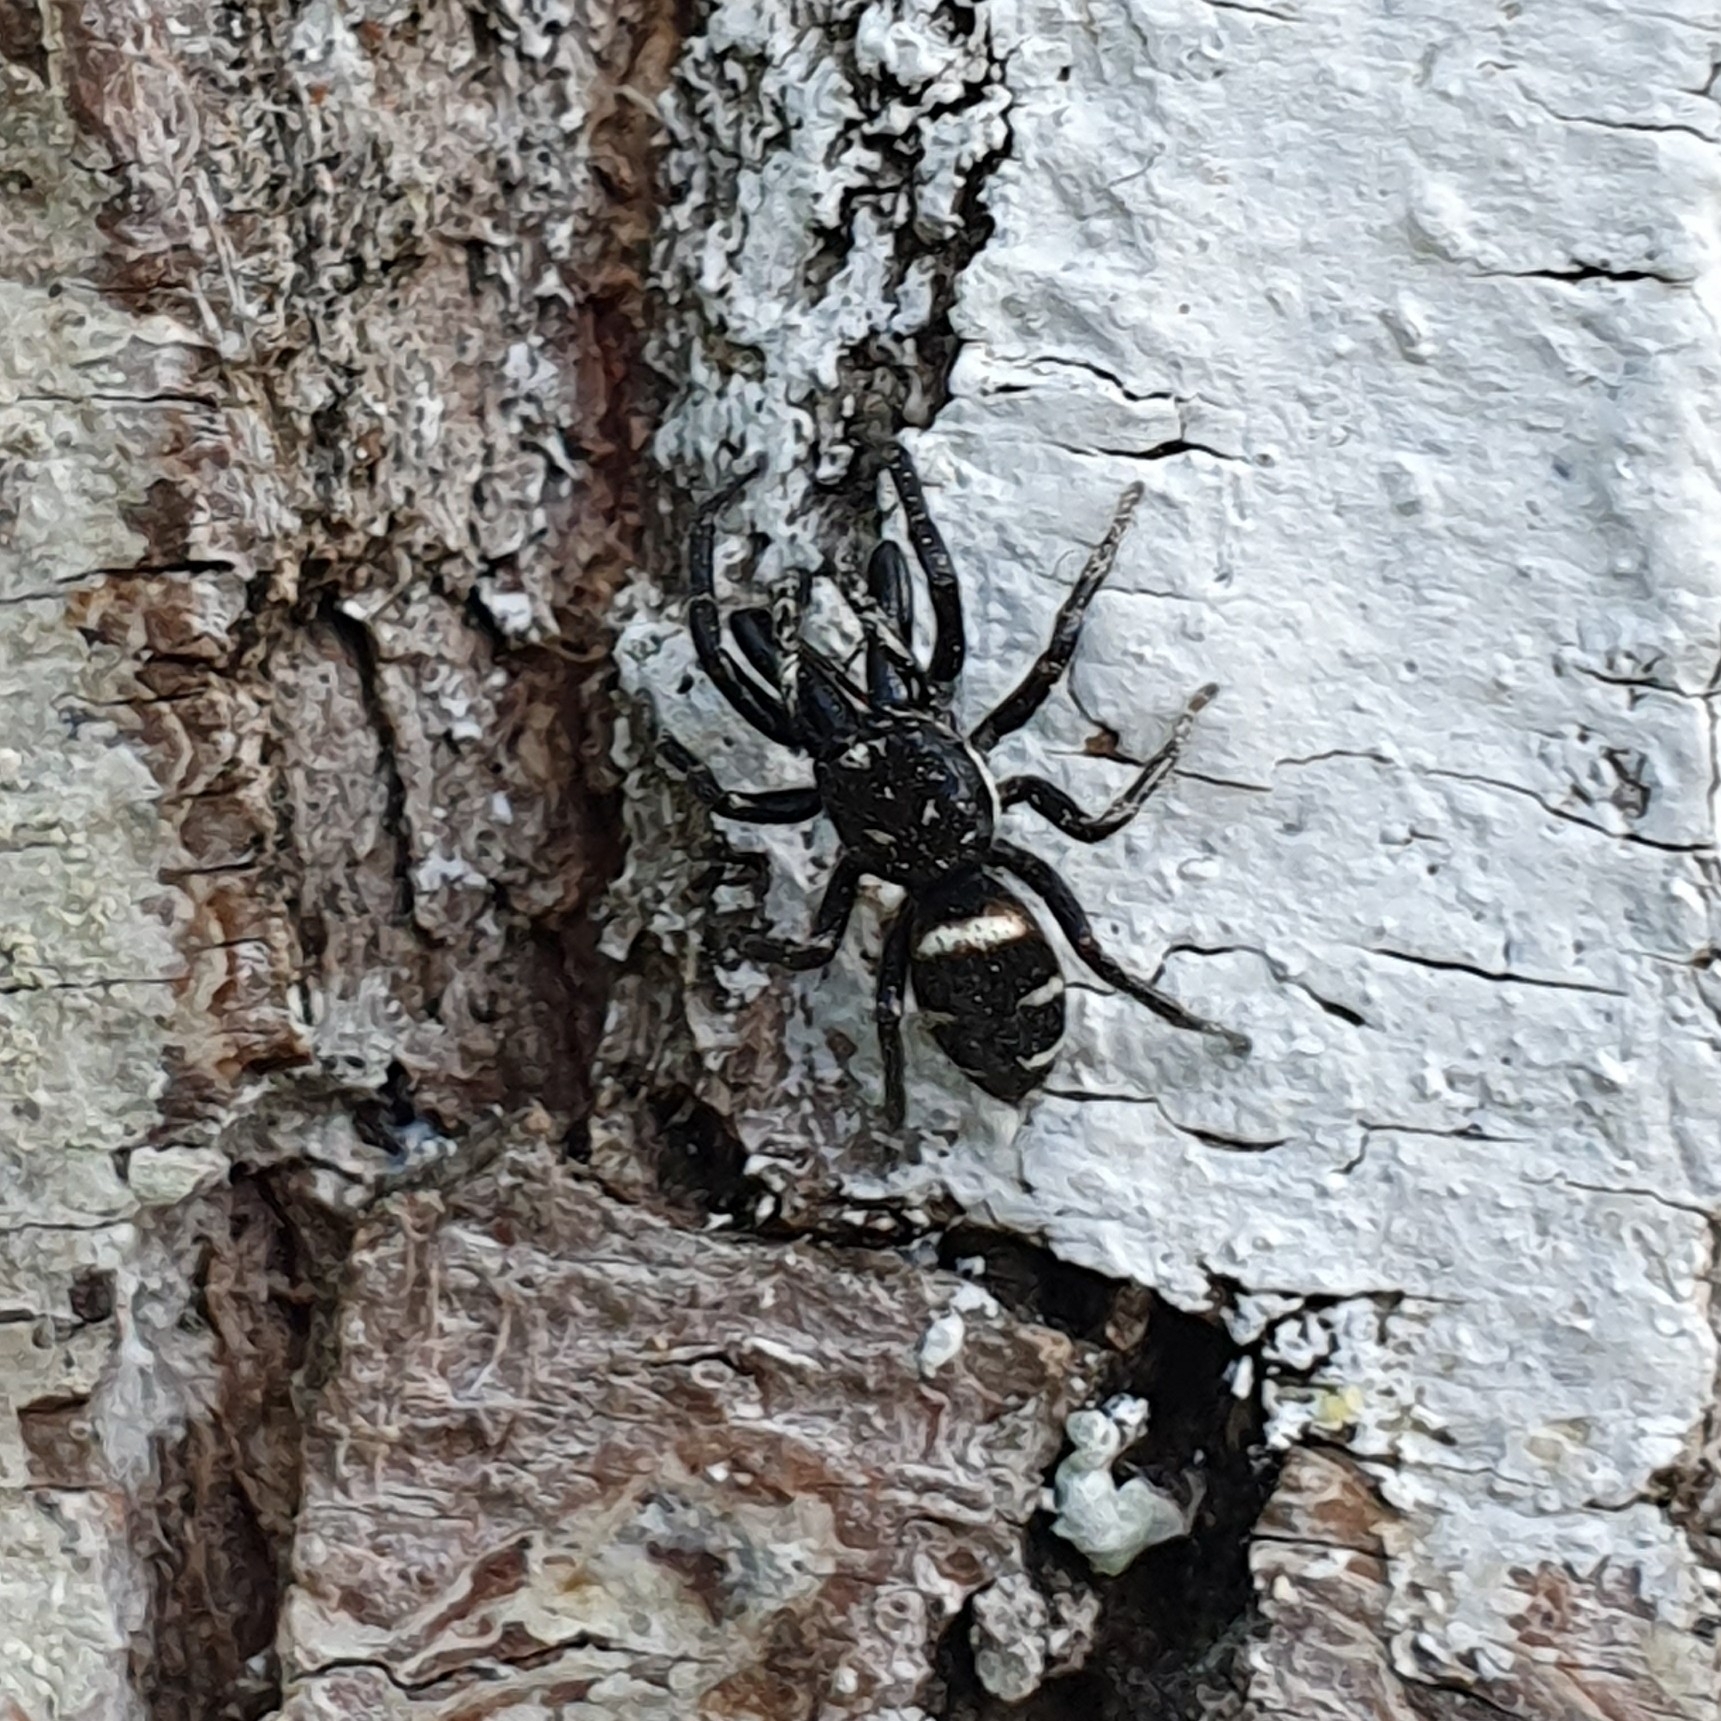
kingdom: Animalia
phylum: Arthropoda
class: Arachnida
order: Araneae
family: Salticidae
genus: Salticus
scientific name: Salticus scenicus
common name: Zebra jumper
